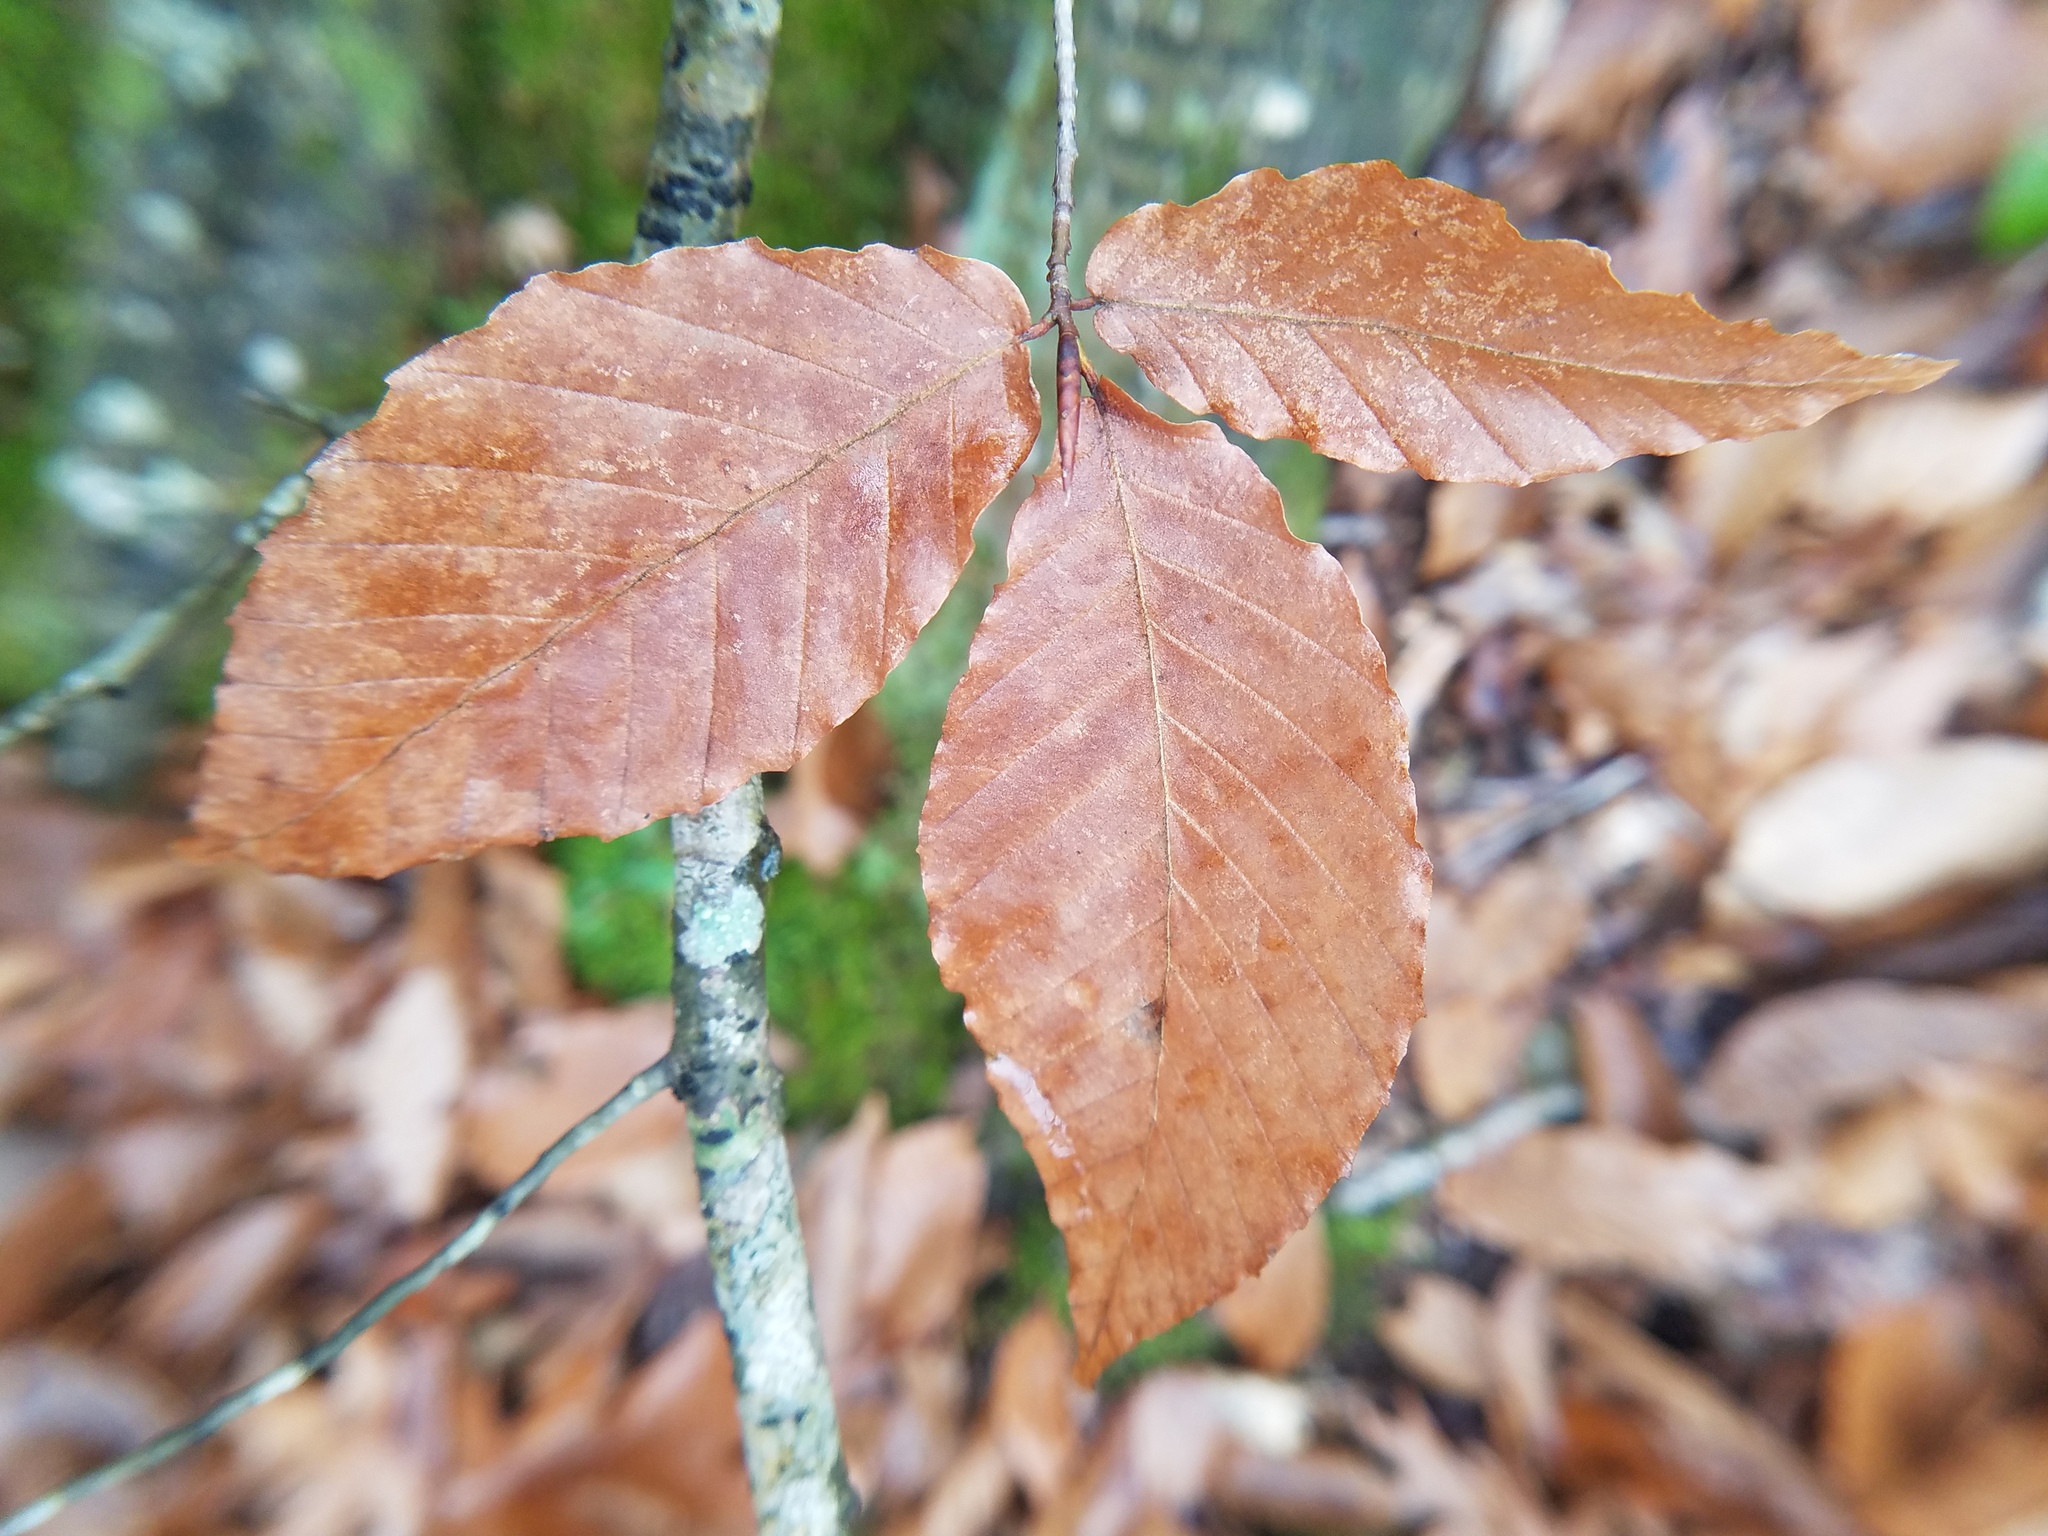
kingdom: Plantae
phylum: Tracheophyta
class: Magnoliopsida
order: Fagales
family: Fagaceae
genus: Fagus
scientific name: Fagus grandifolia
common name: American beech
